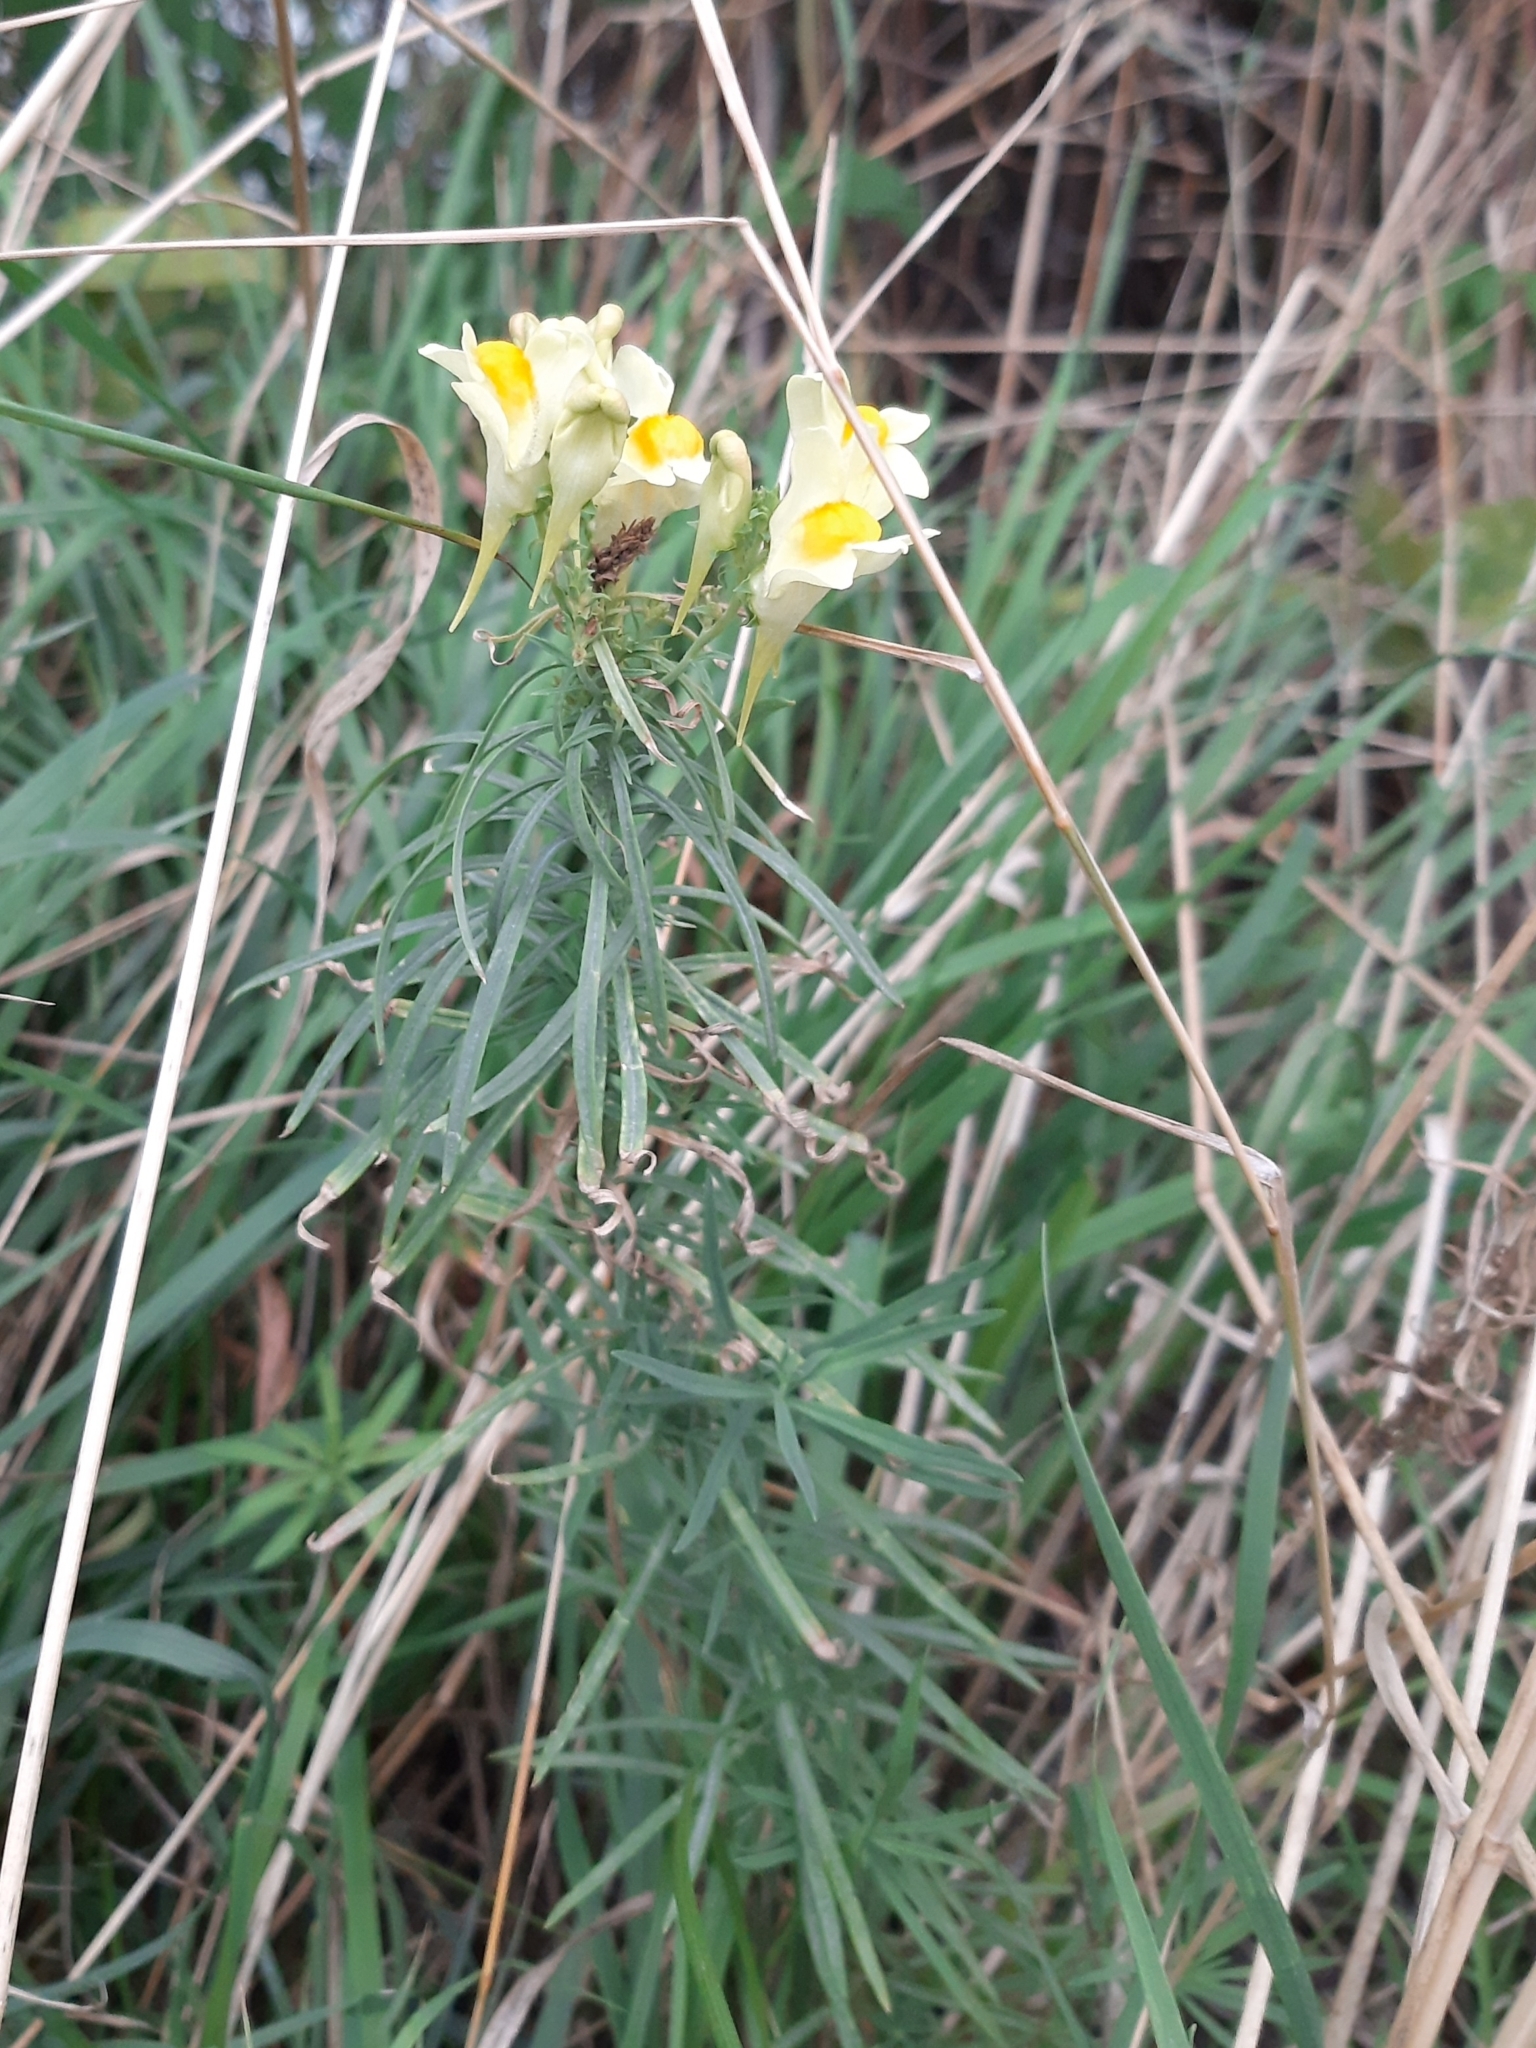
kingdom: Plantae
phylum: Tracheophyta
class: Magnoliopsida
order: Lamiales
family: Plantaginaceae
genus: Linaria
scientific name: Linaria vulgaris
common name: Butter and eggs
